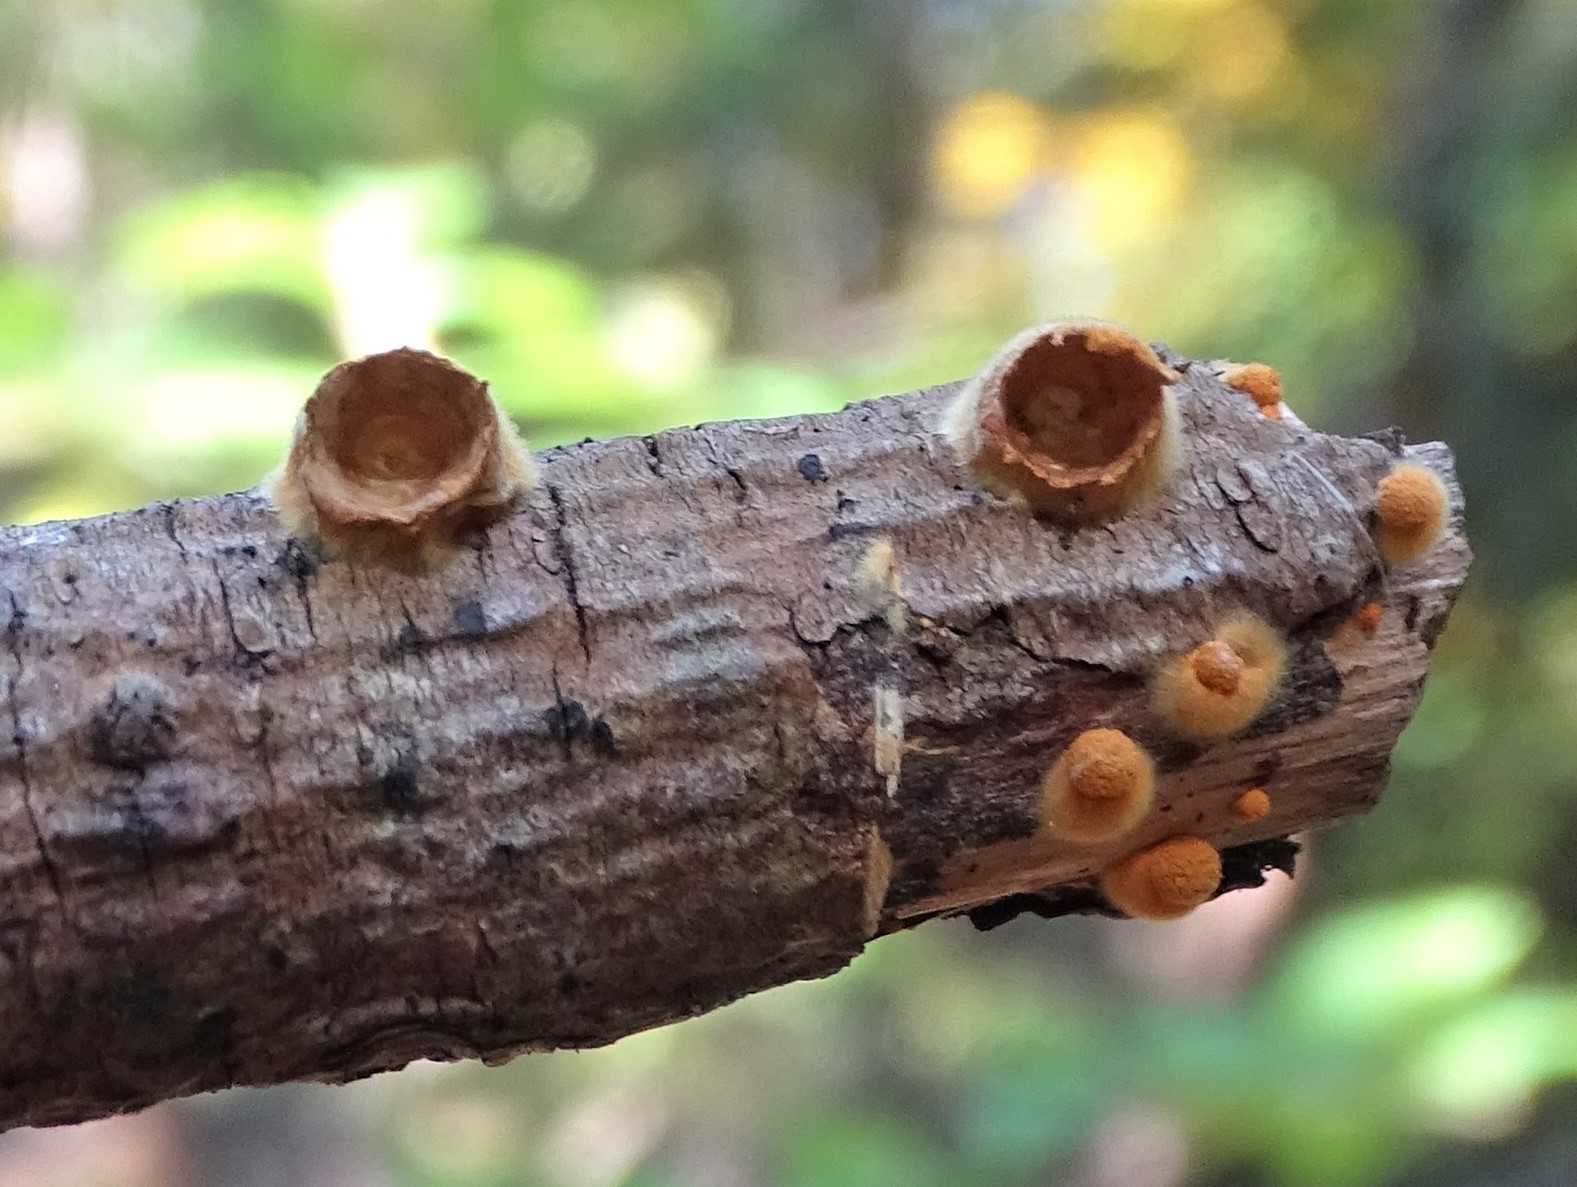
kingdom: Fungi
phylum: Basidiomycota
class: Agaricomycetes
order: Agaricales
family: Nidulariaceae
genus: Crucibulum
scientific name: Crucibulum laeve
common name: Common bird's nest
